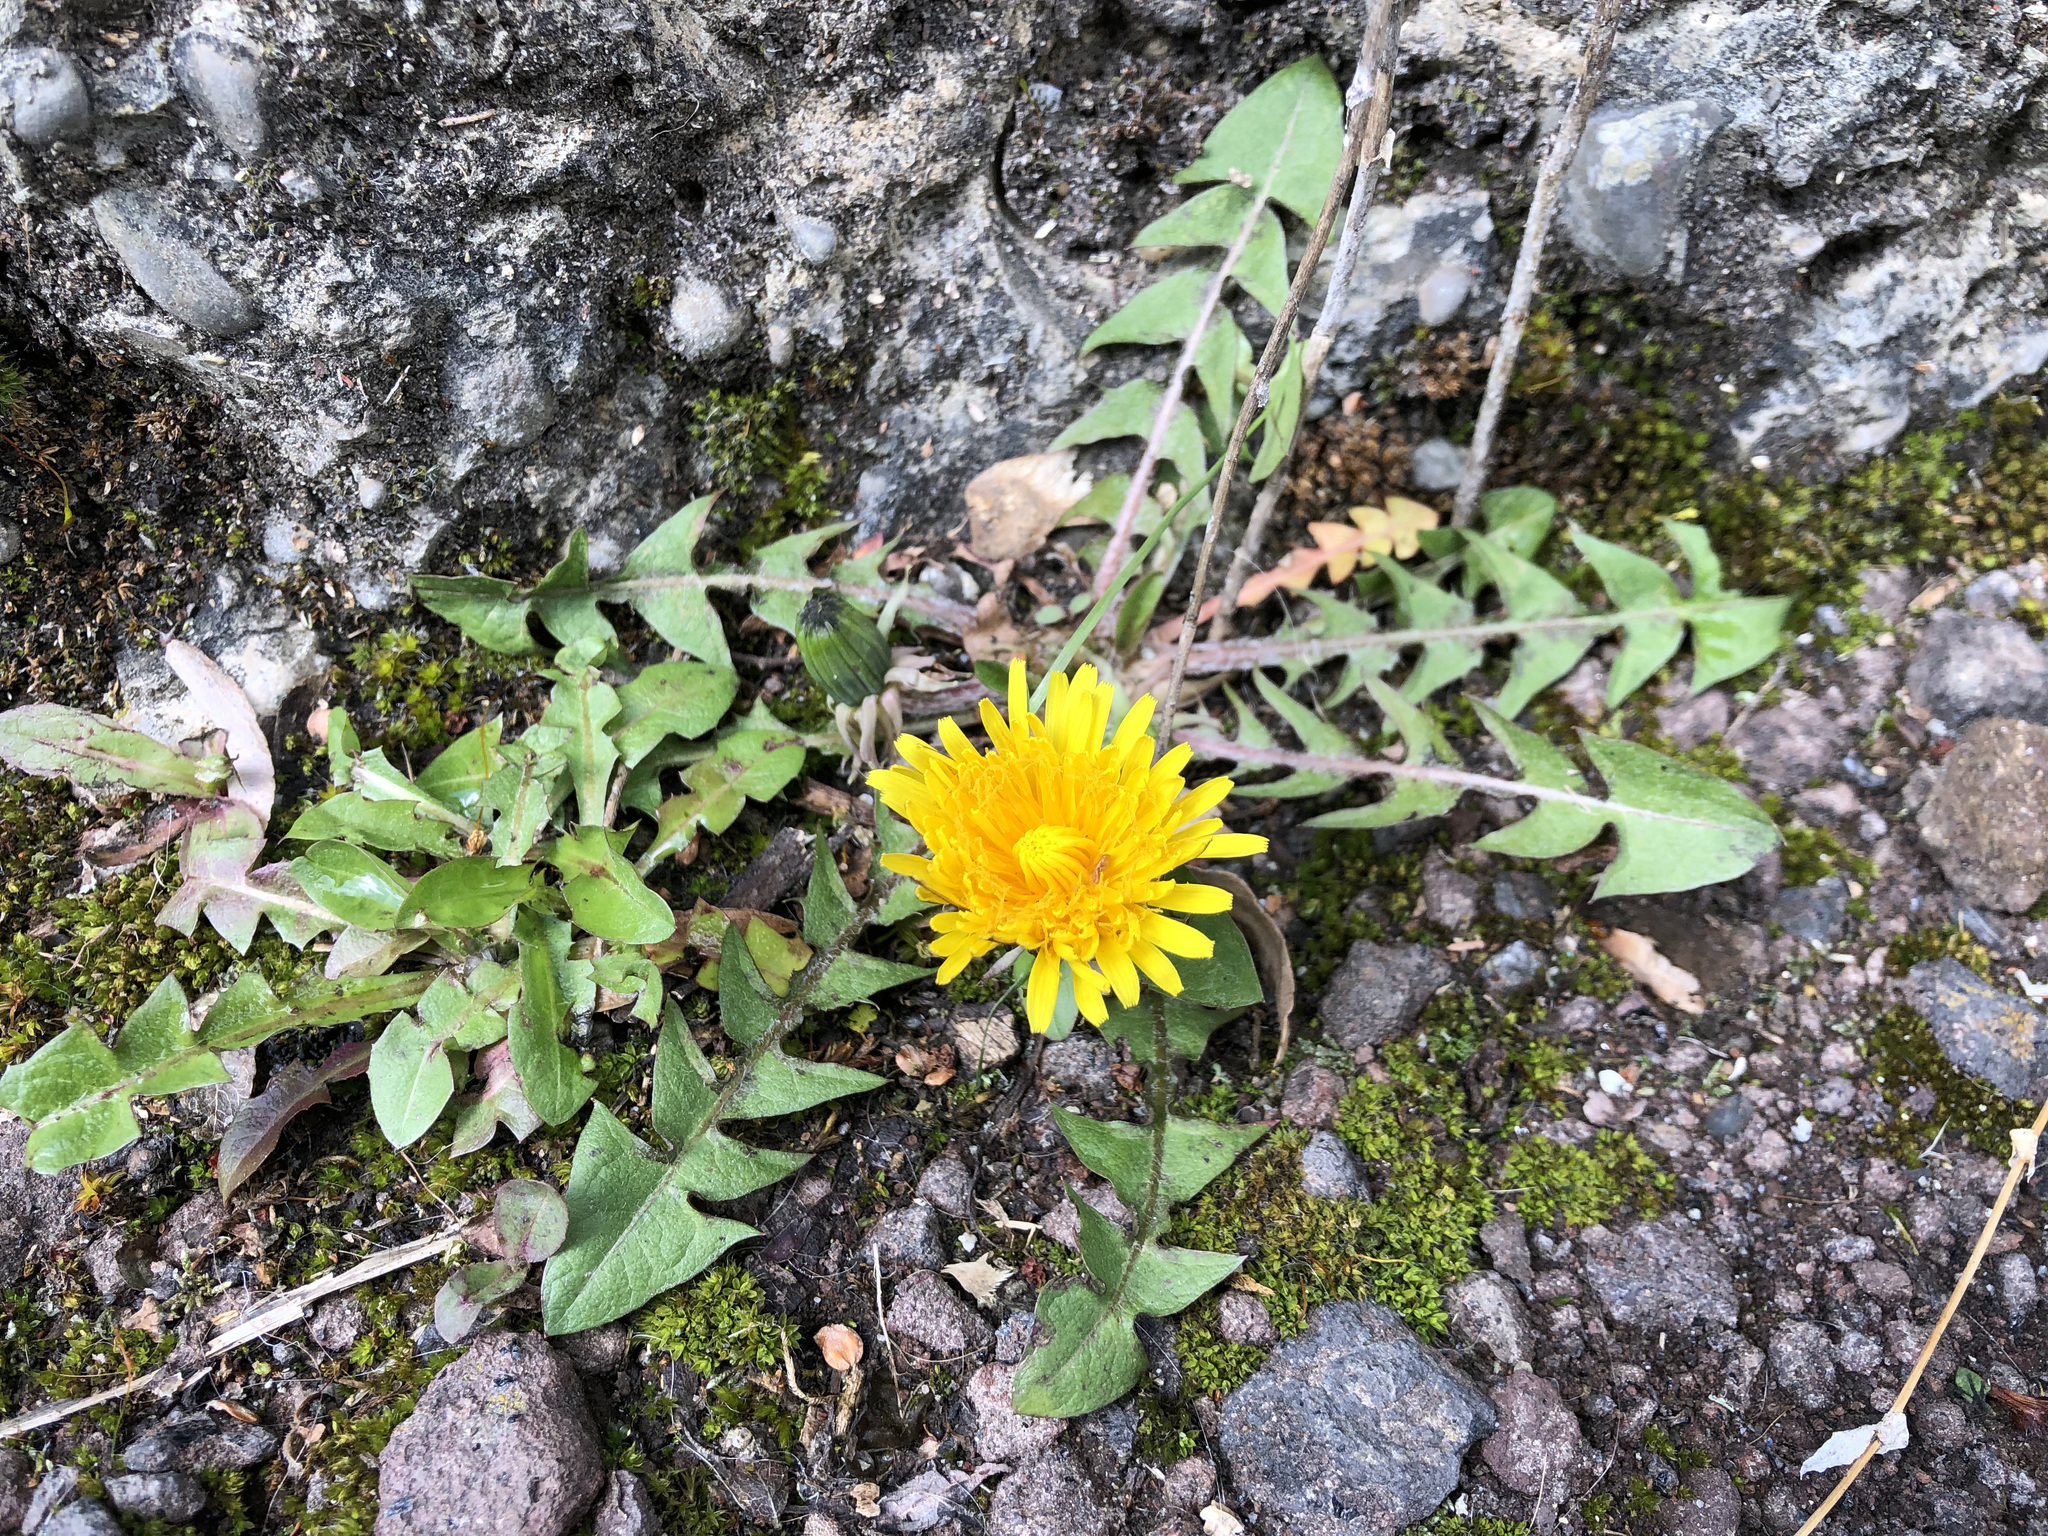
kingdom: Plantae
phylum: Tracheophyta
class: Magnoliopsida
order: Asterales
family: Asteraceae
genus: Taraxacum
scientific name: Taraxacum officinale
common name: Common dandelion
